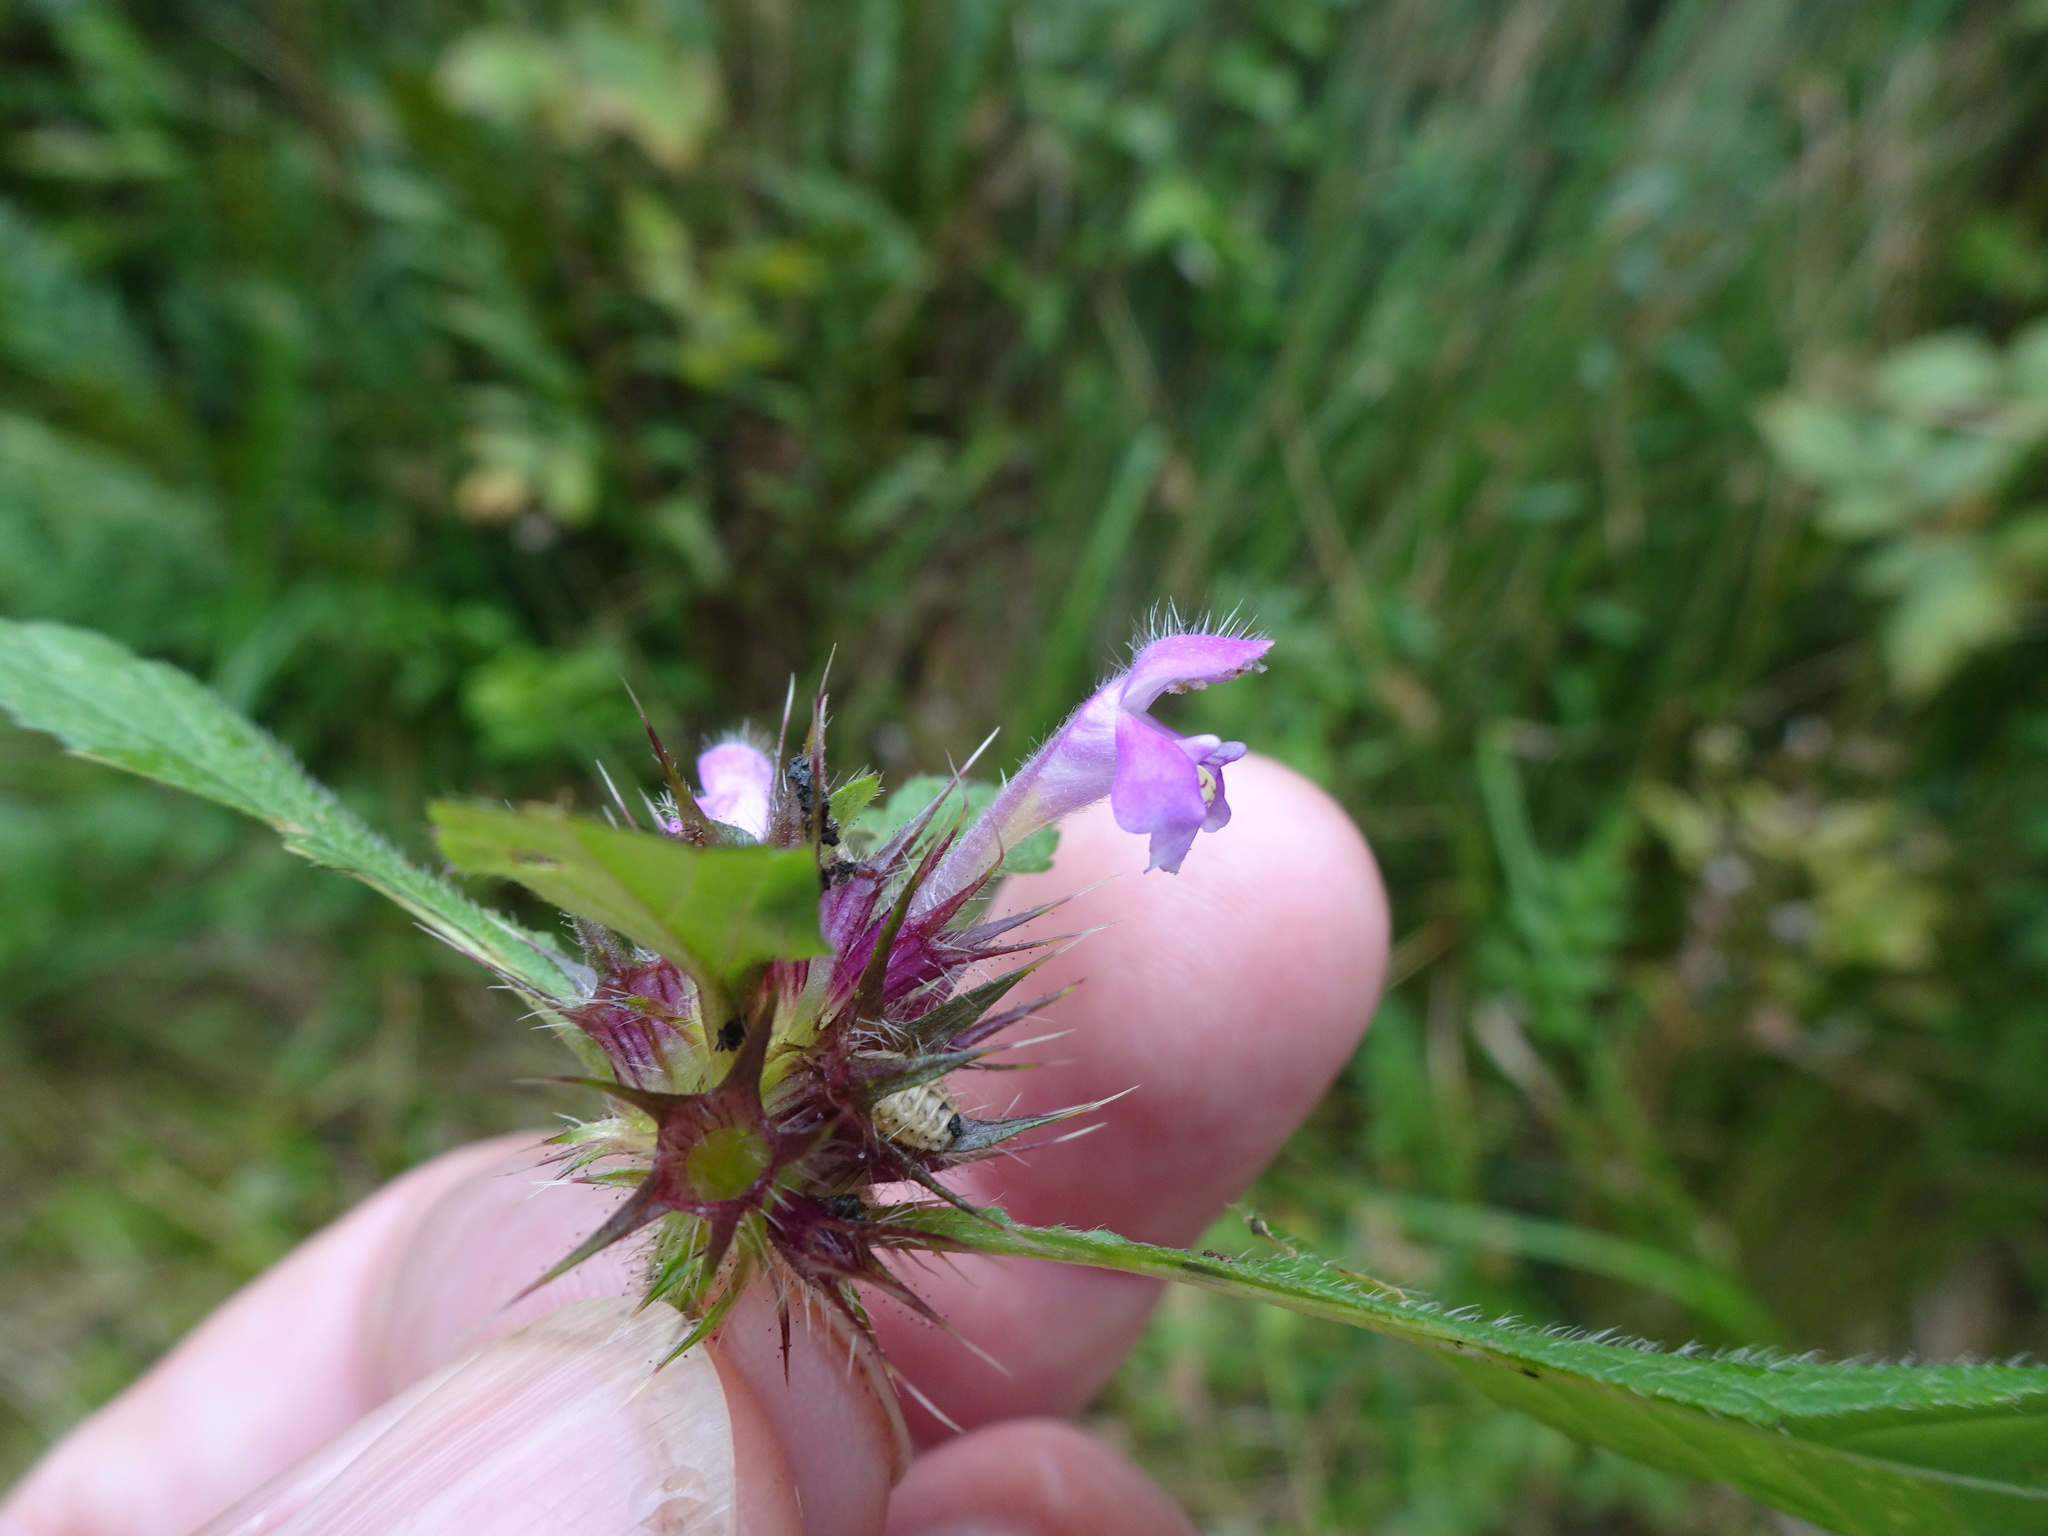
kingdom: Plantae
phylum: Tracheophyta
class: Magnoliopsida
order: Lamiales
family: Lamiaceae
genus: Galeopsis
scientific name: Galeopsis tetrahit
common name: Common hemp-nettle
